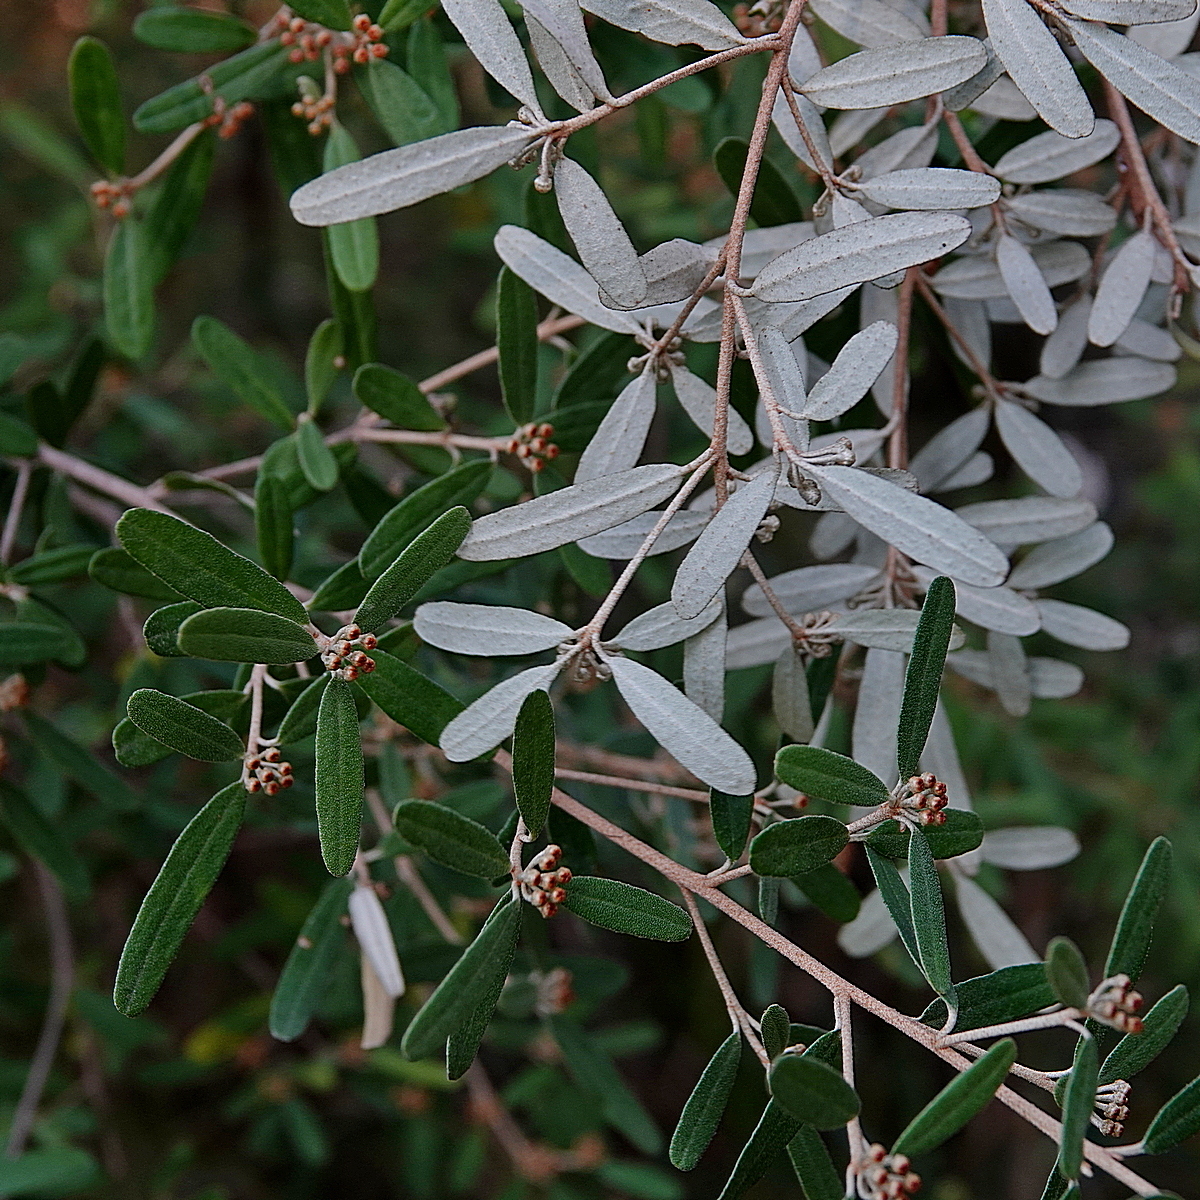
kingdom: Plantae
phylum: Tracheophyta
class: Magnoliopsida
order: Sapindales
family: Rutaceae
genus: Phebalium
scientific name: Phebalium squamulosum
